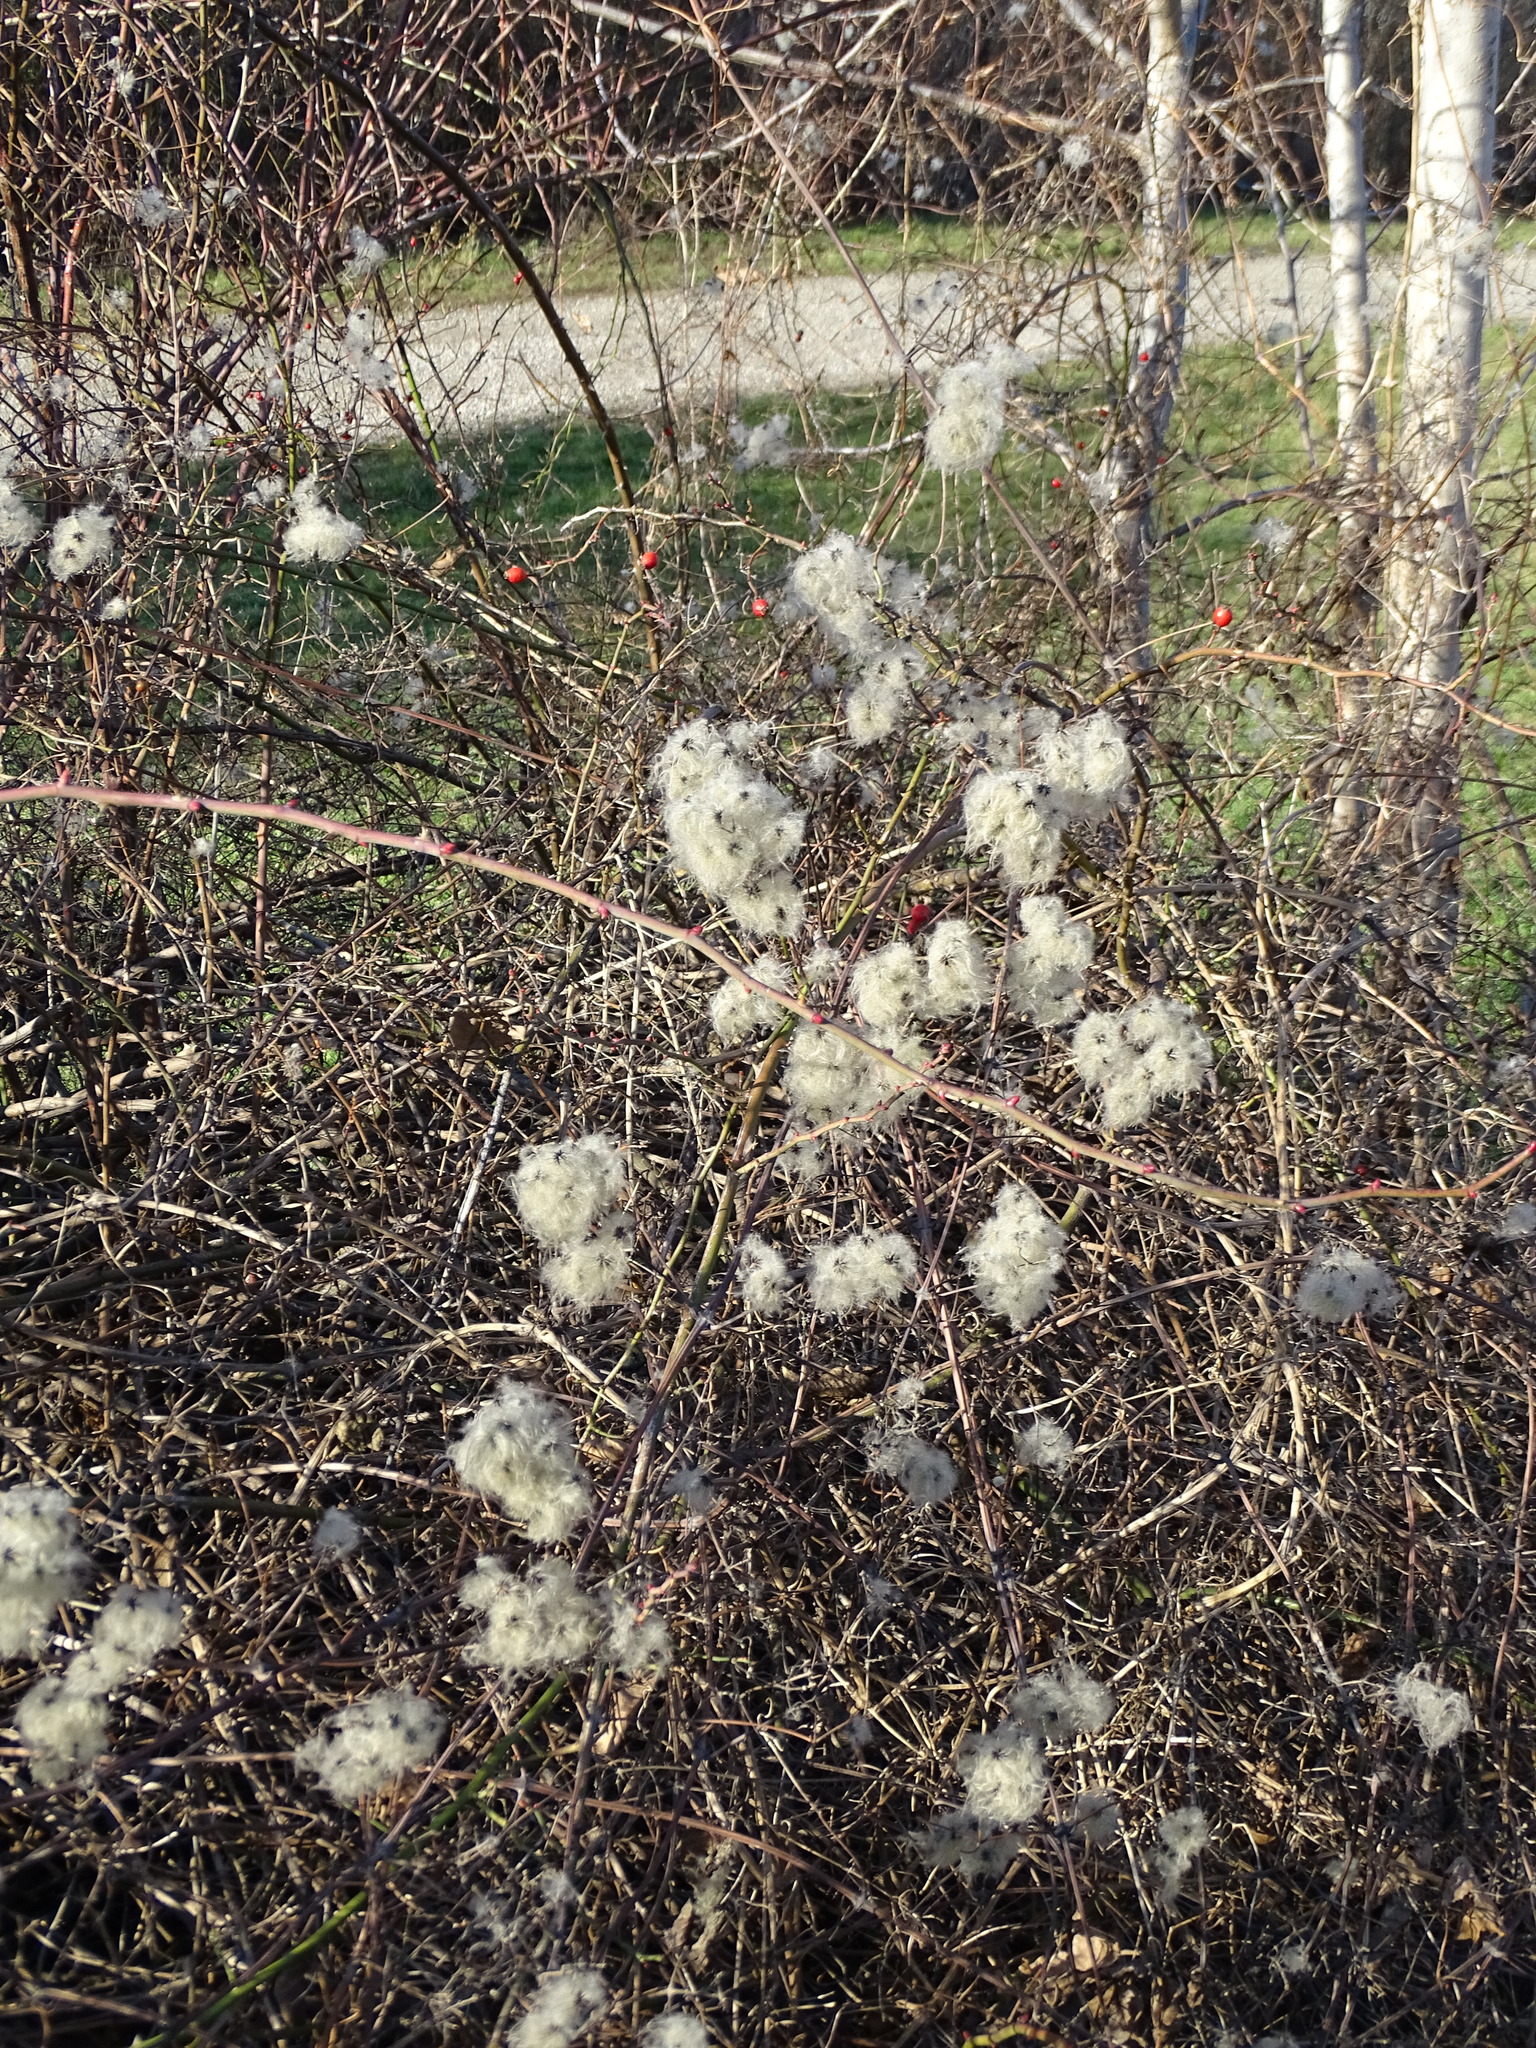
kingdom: Plantae
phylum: Tracheophyta
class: Magnoliopsida
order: Ranunculales
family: Ranunculaceae
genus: Clematis
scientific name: Clematis vitalba
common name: Evergreen clematis
